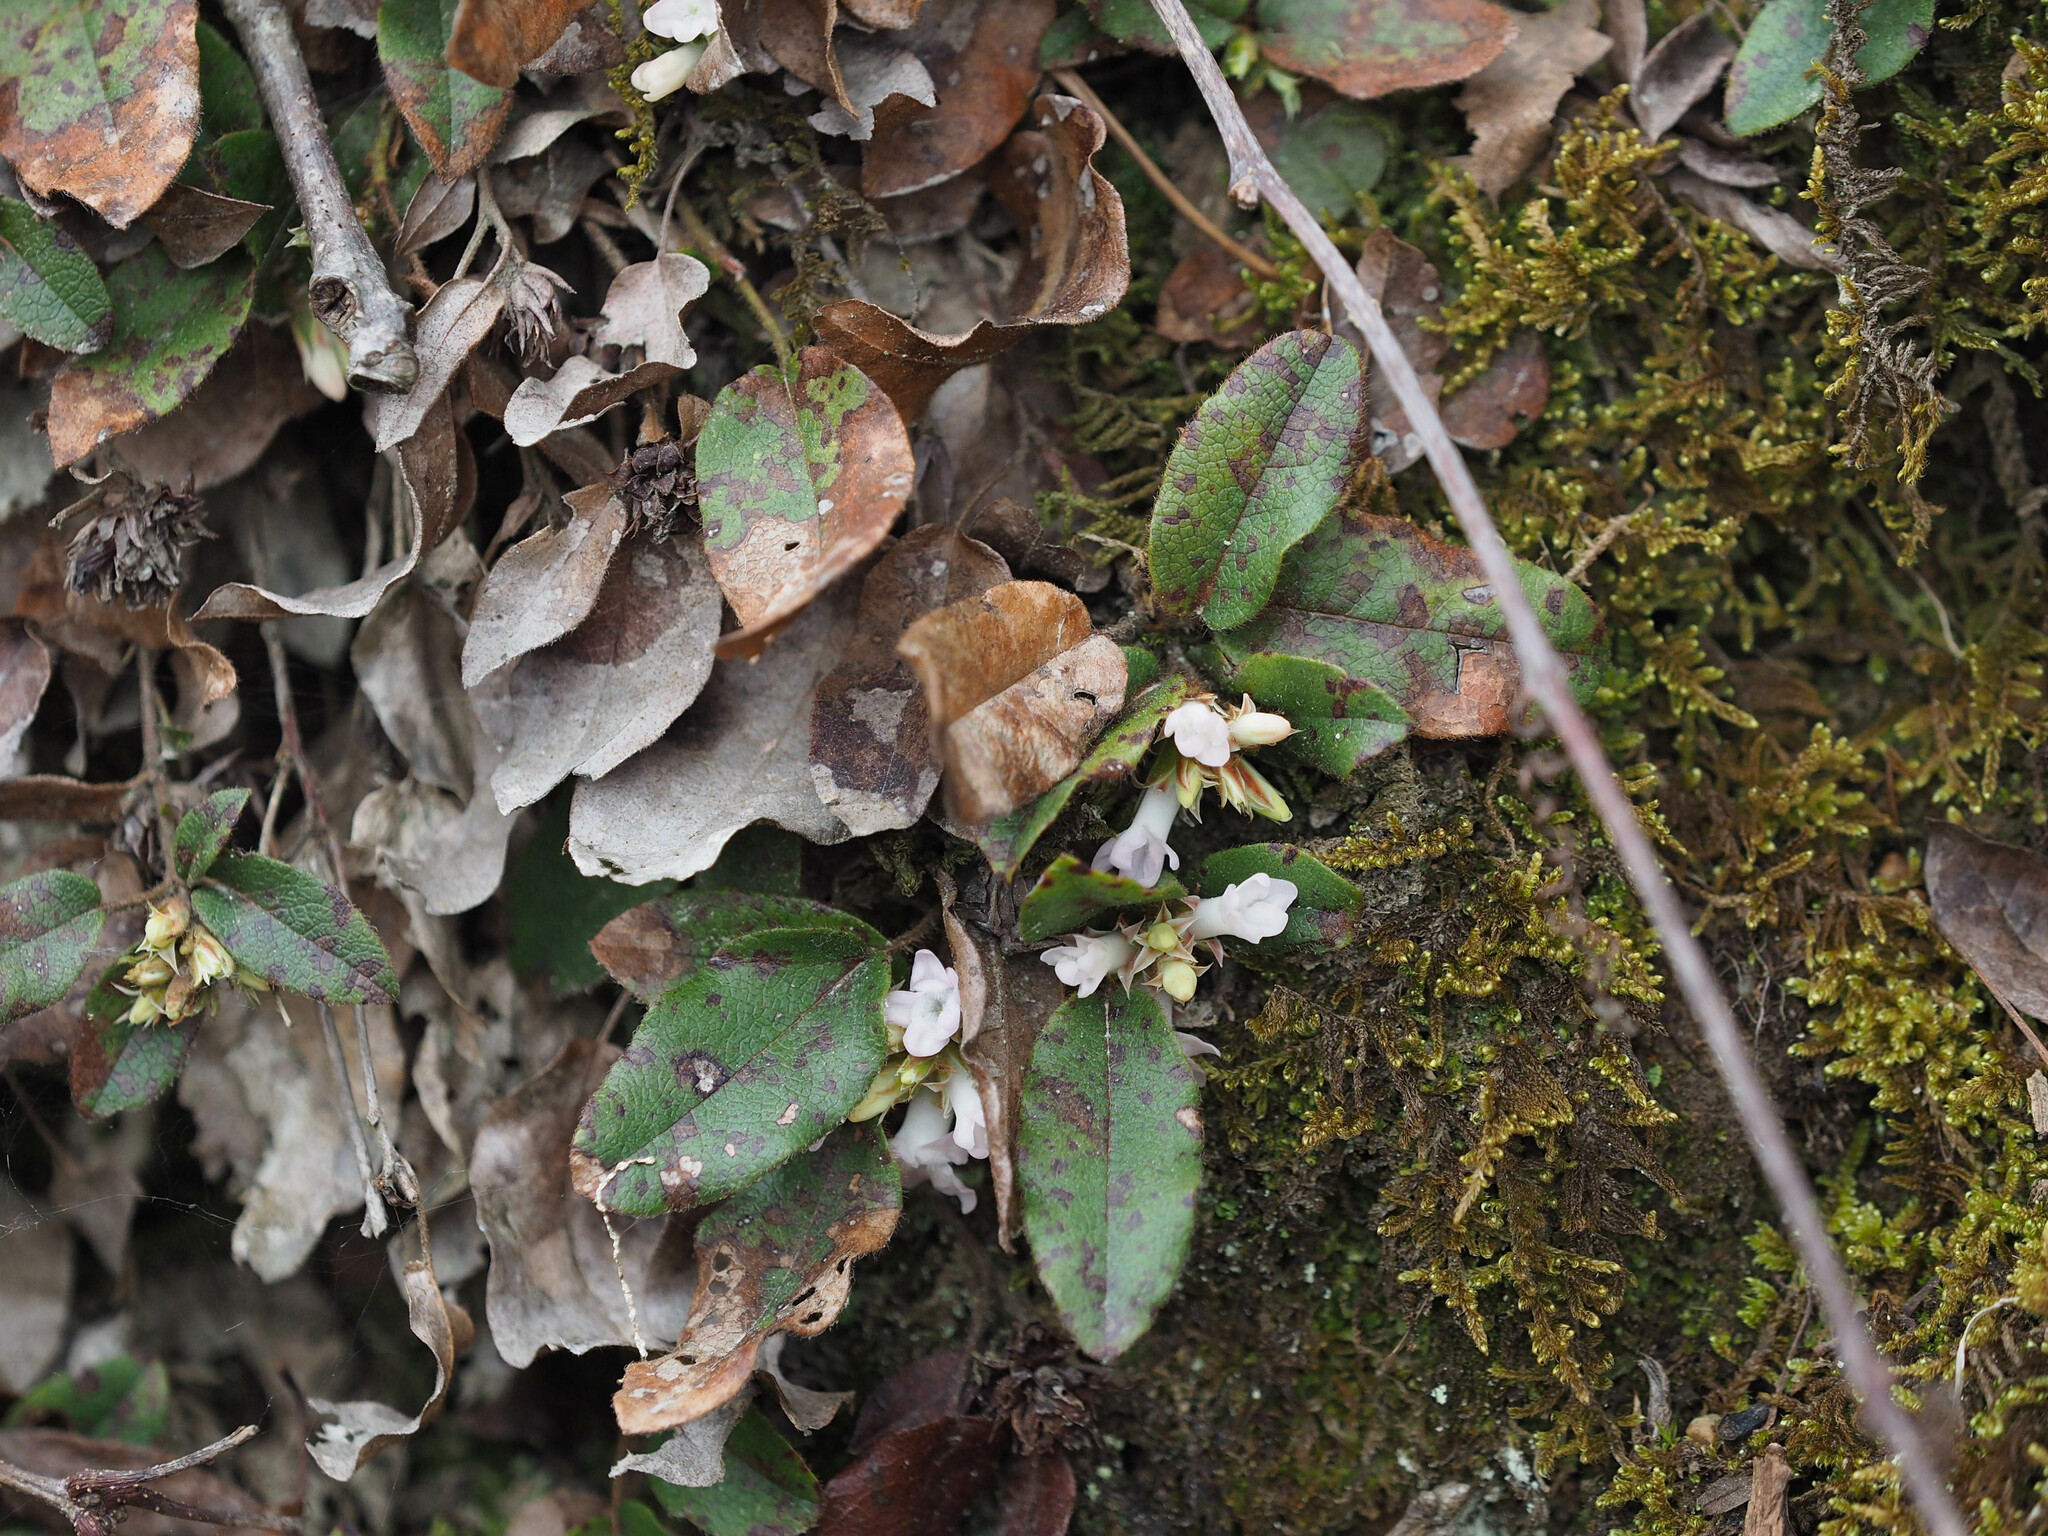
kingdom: Plantae
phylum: Tracheophyta
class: Magnoliopsida
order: Ericales
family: Ericaceae
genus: Epigaea
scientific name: Epigaea repens
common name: Gravelroot
